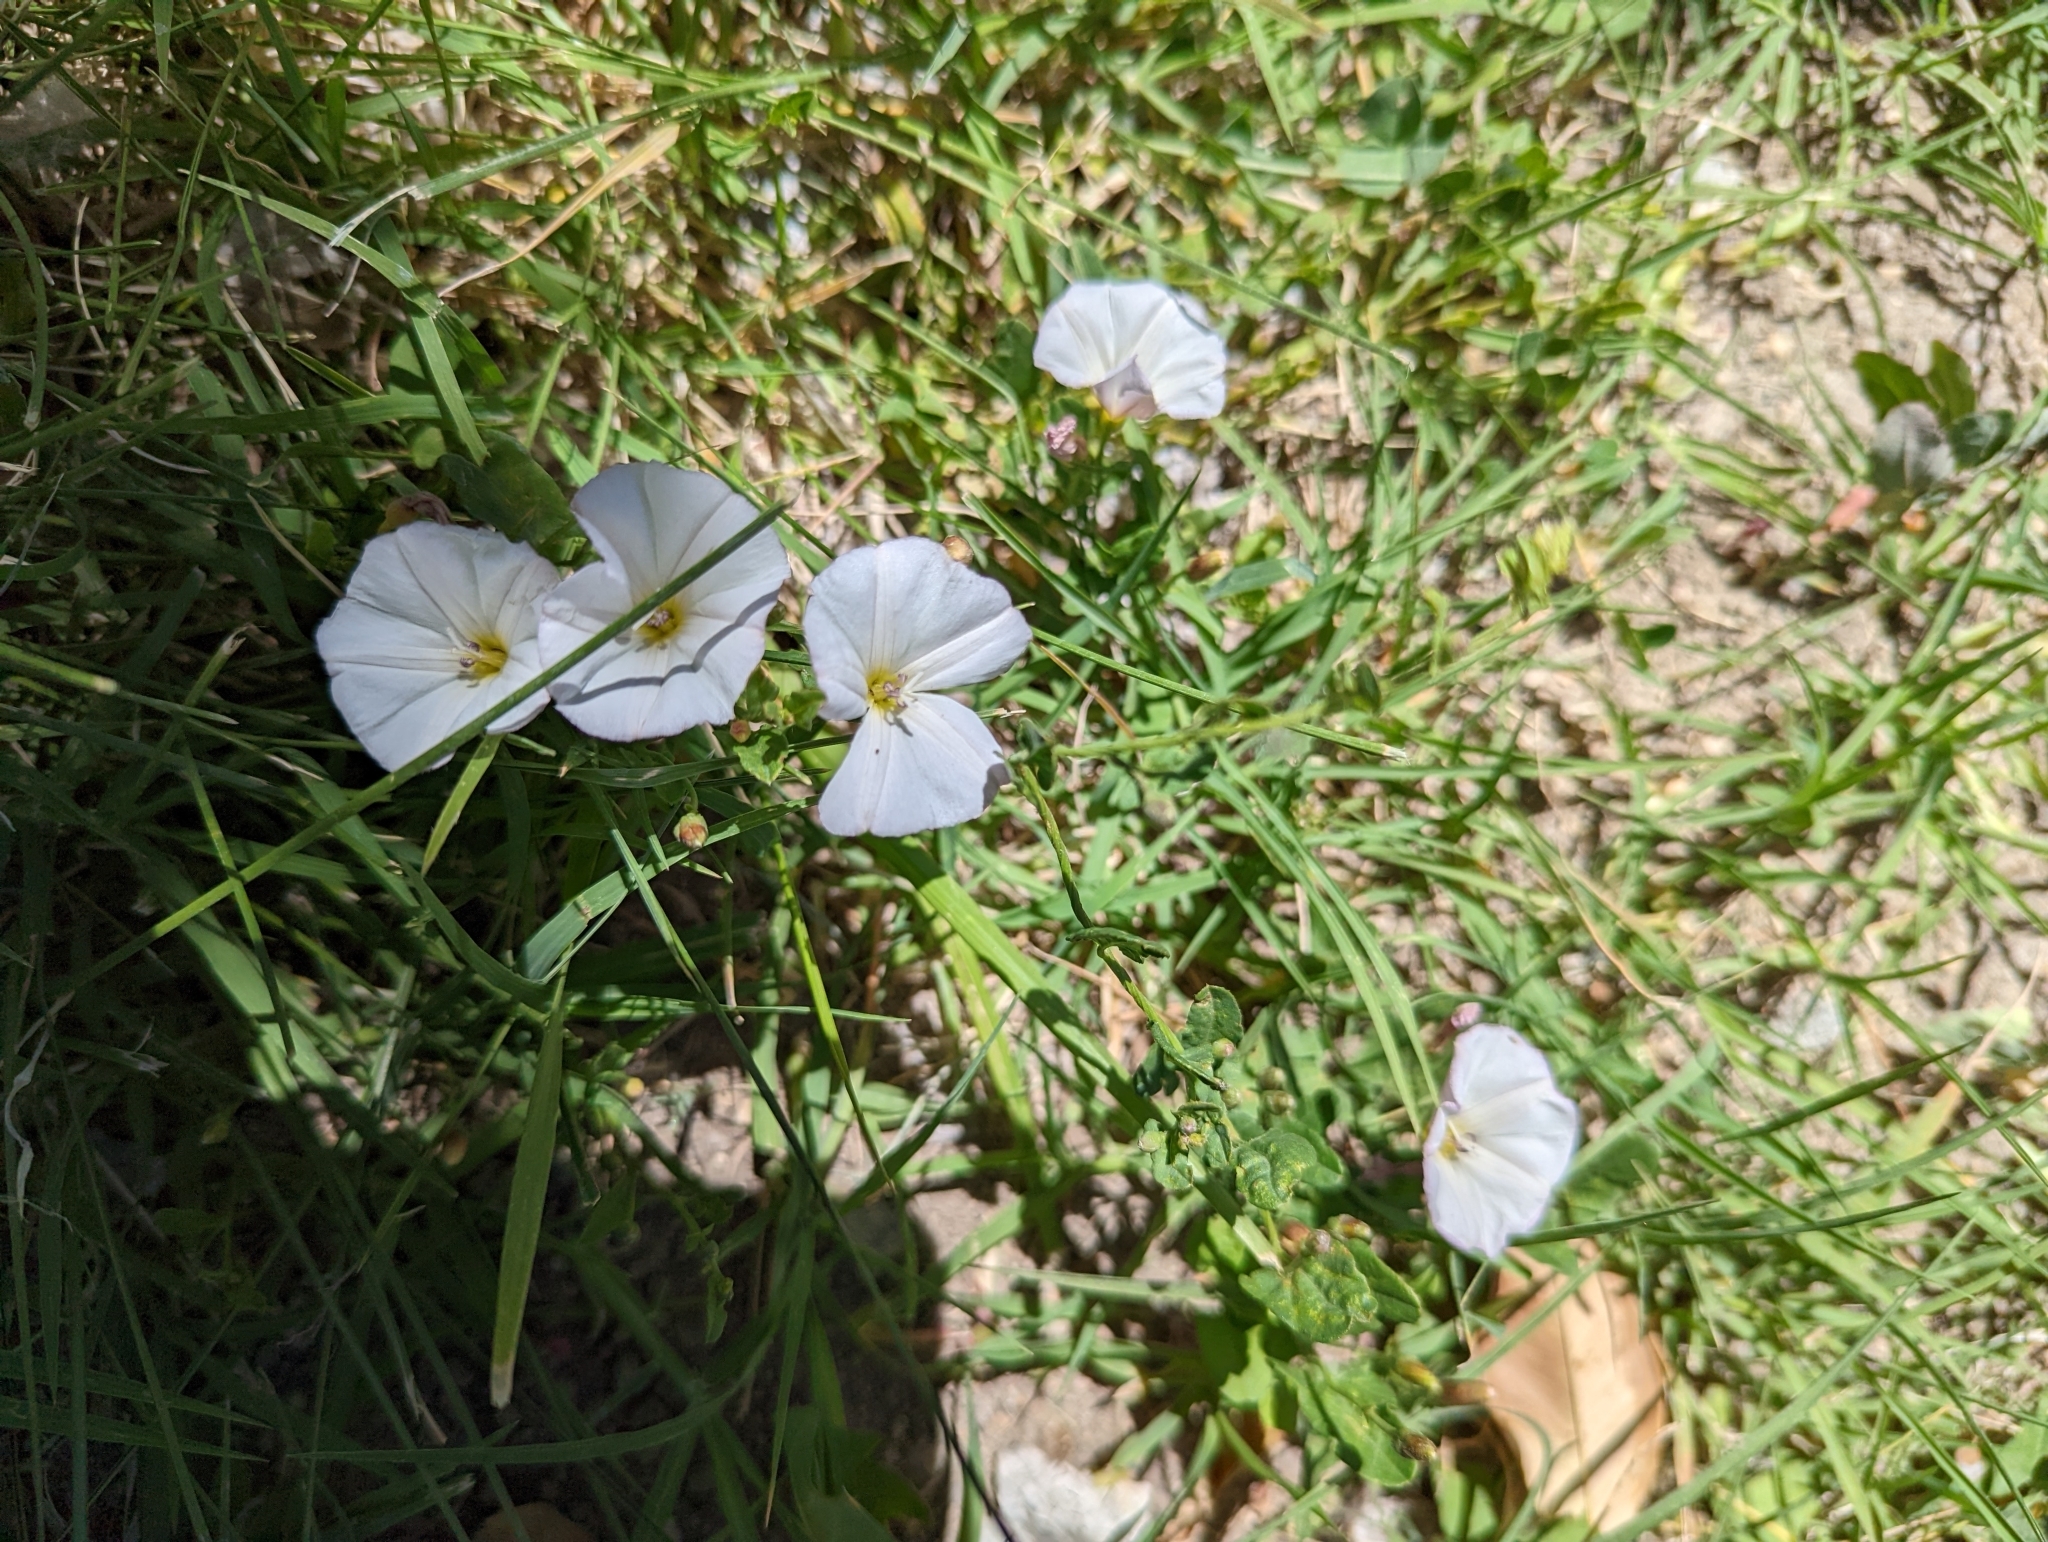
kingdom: Plantae
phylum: Tracheophyta
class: Magnoliopsida
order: Solanales
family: Convolvulaceae
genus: Convolvulus
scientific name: Convolvulus arvensis
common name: Field bindweed
